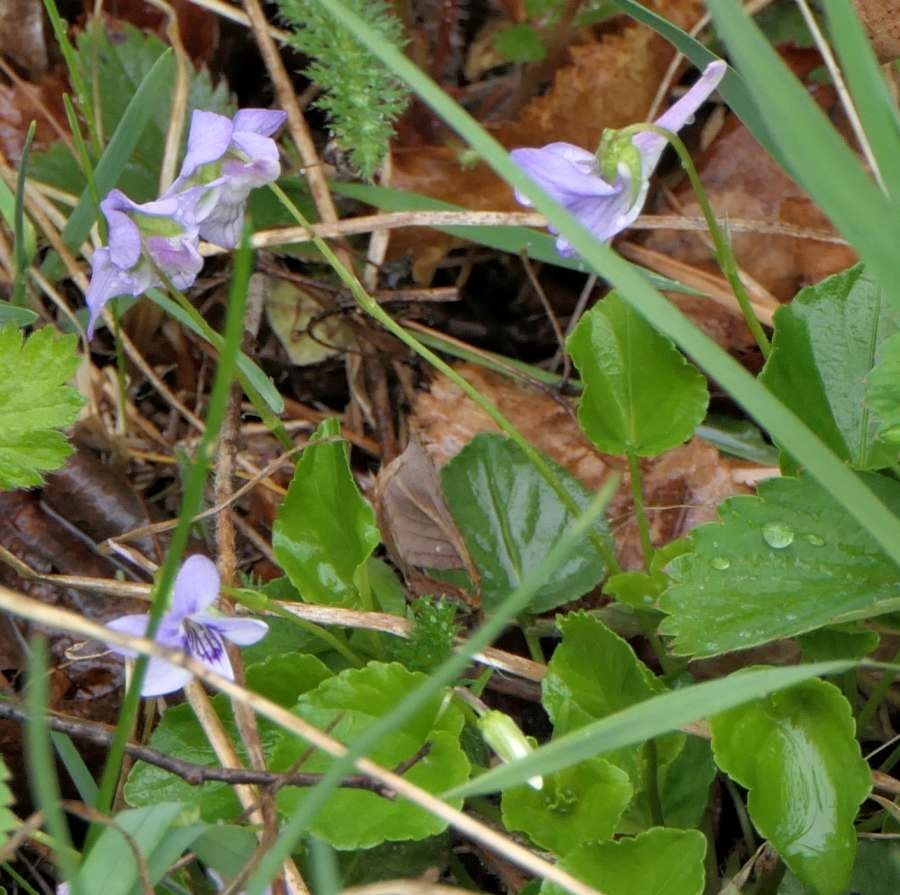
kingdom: Plantae
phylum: Tracheophyta
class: Magnoliopsida
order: Malpighiales
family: Violaceae
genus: Viola
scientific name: Viola rostrata
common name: Long-spur violet
